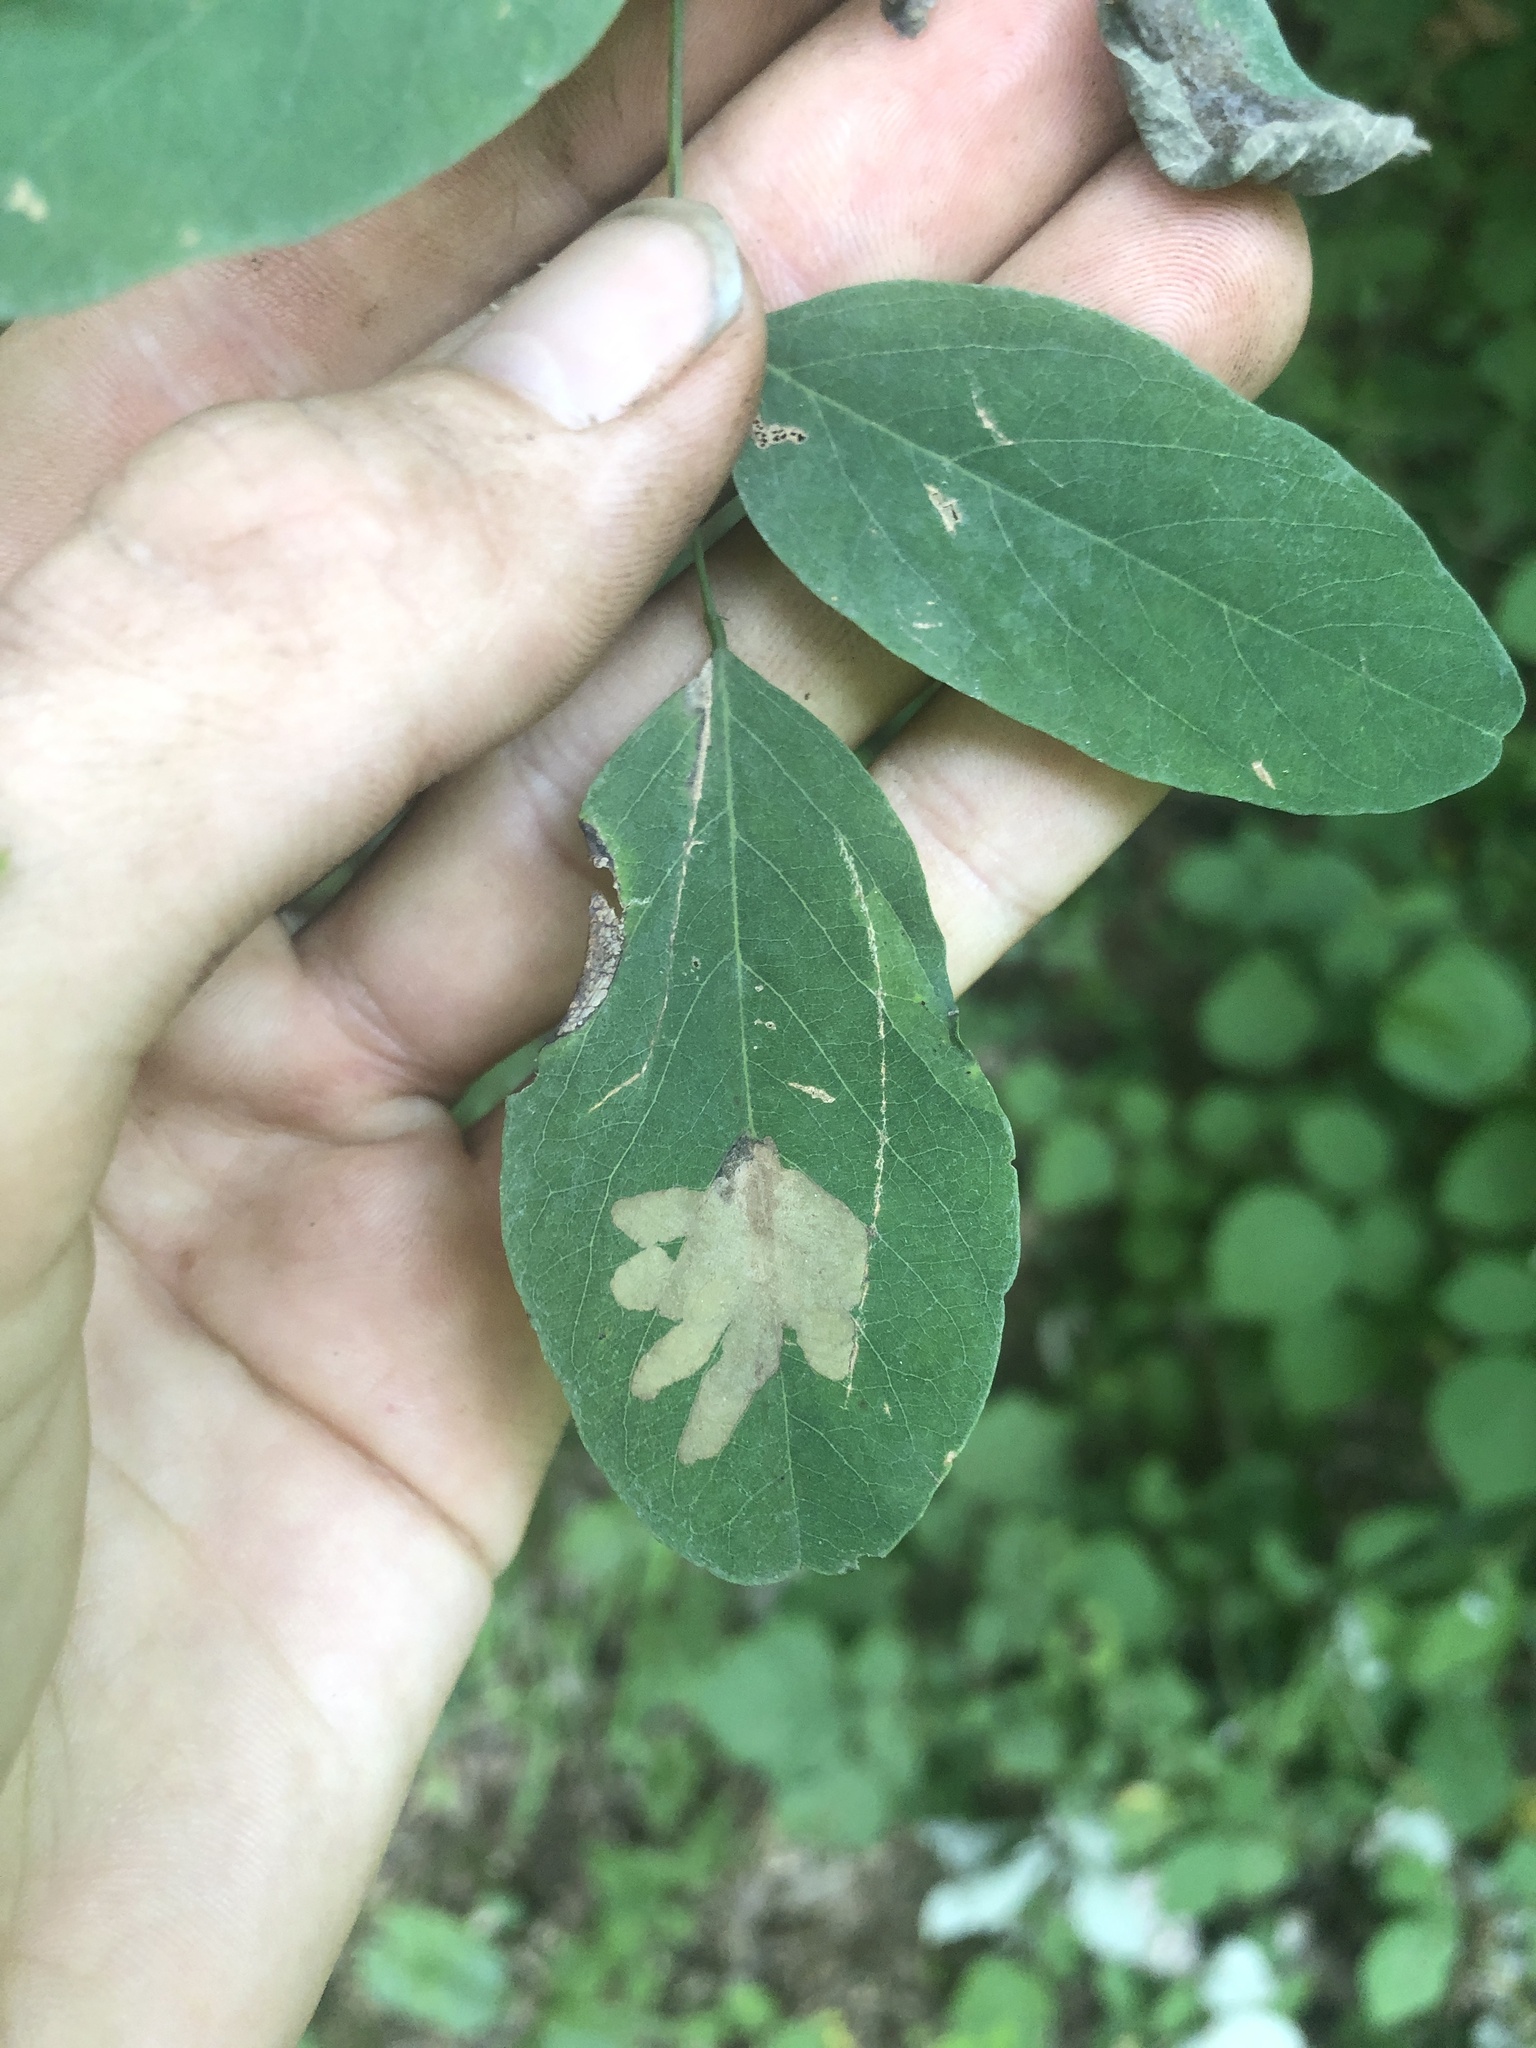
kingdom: Animalia
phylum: Arthropoda
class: Insecta
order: Lepidoptera
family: Gracillariidae
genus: Parectopa
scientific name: Parectopa robiniella
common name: Locust digitate leafminer
